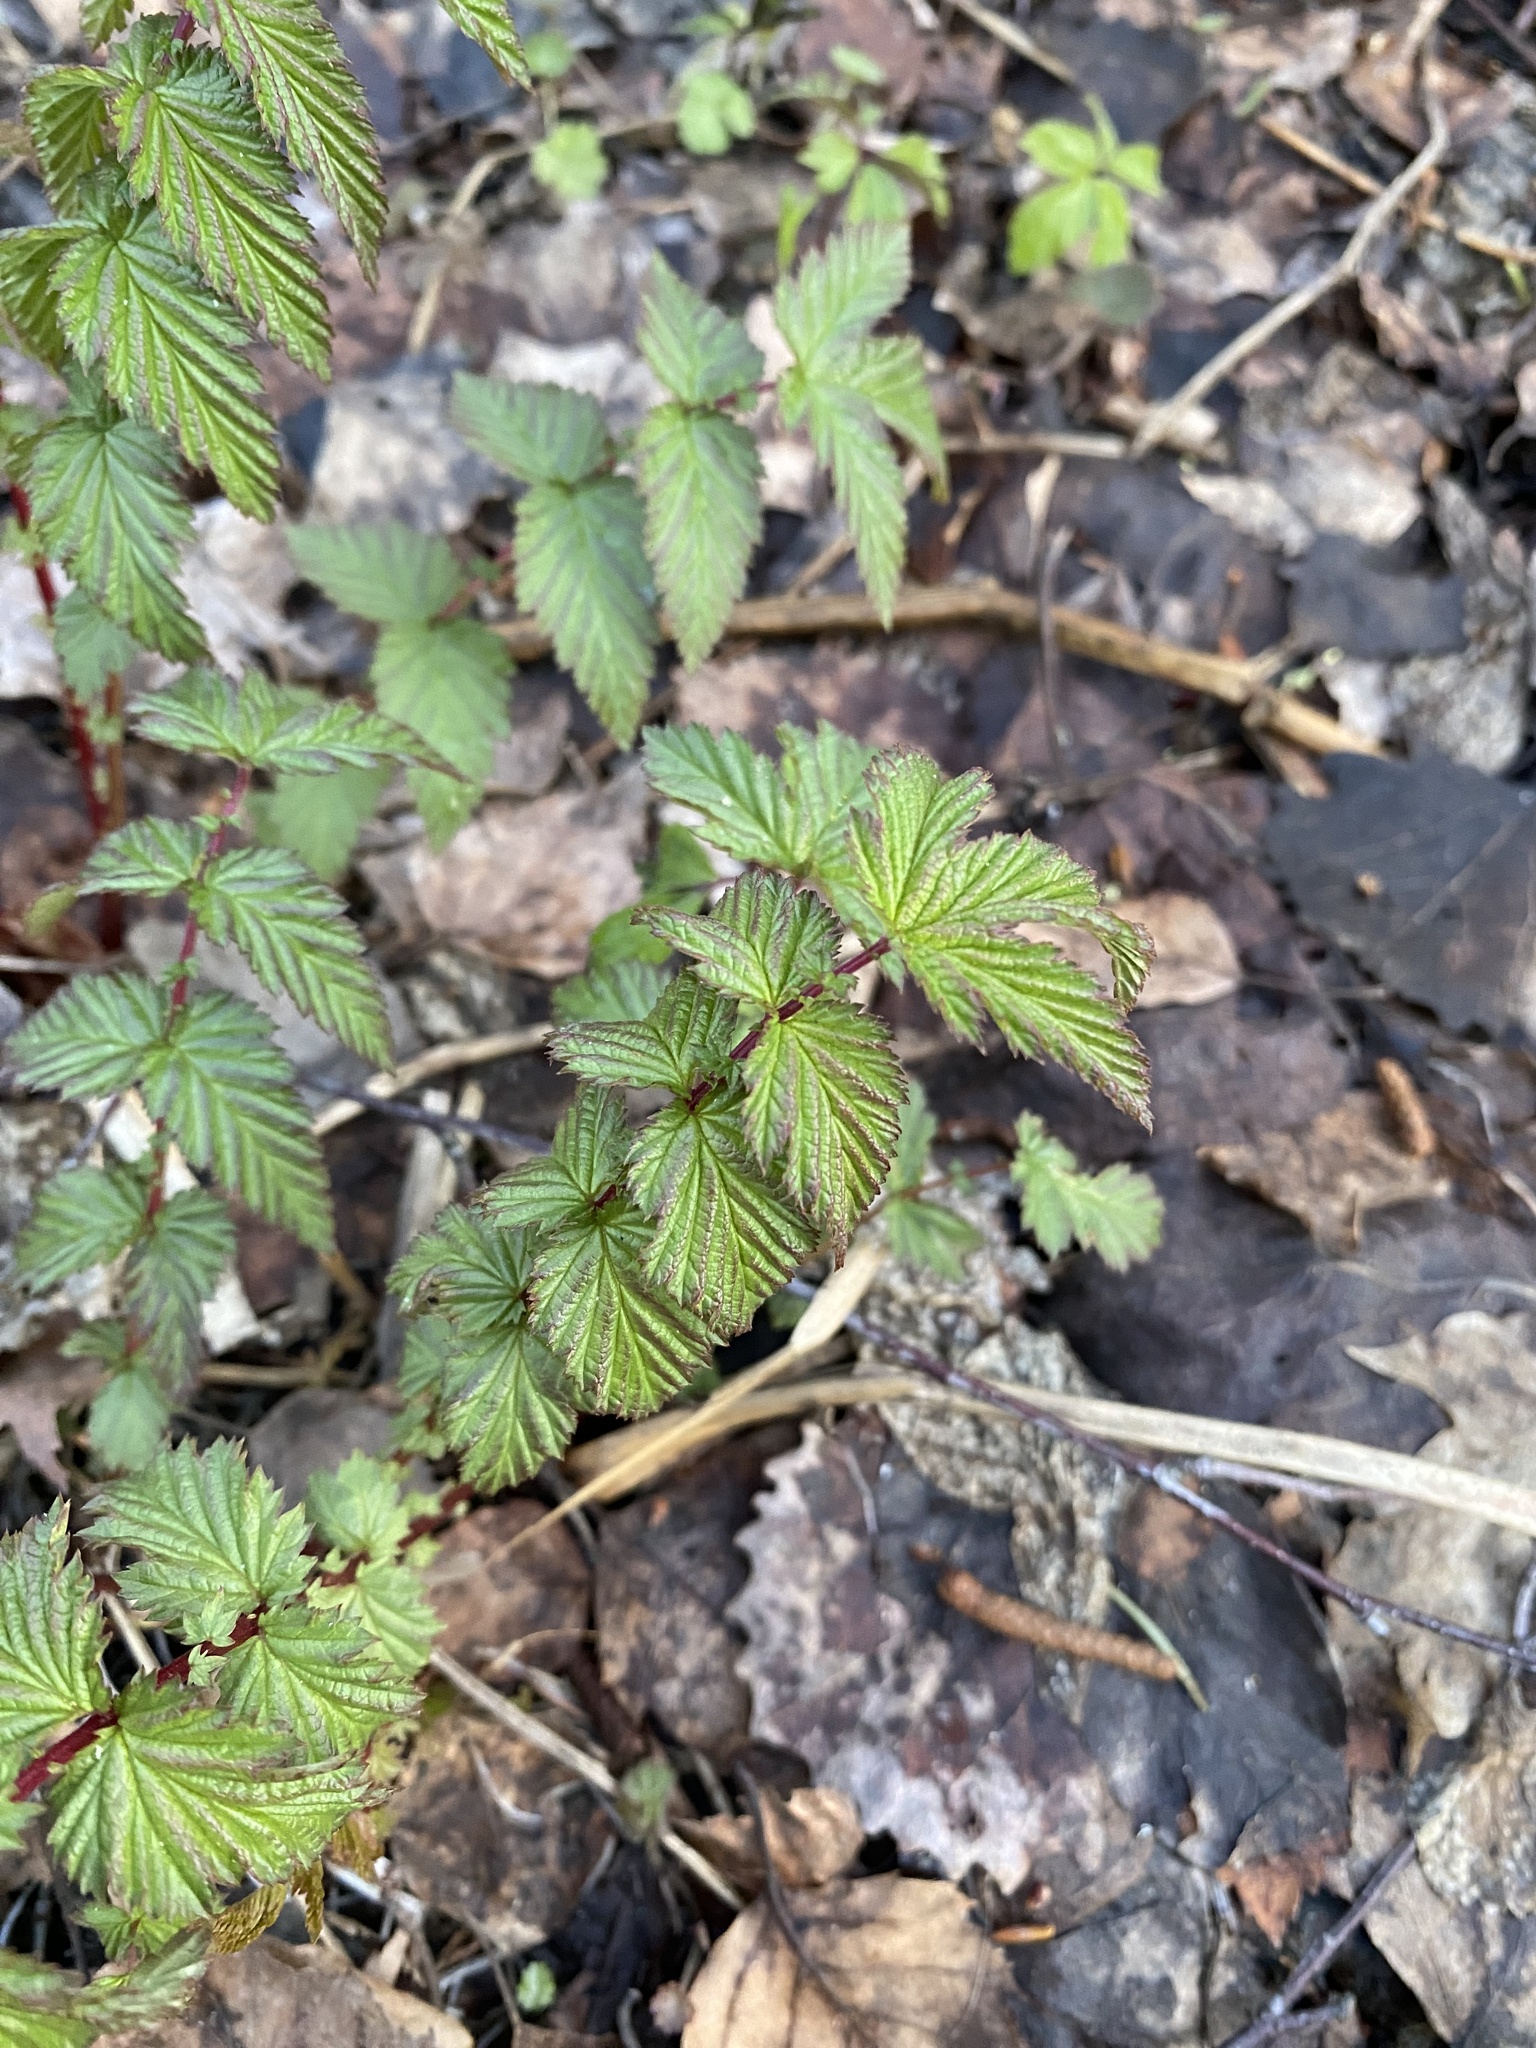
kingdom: Plantae
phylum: Tracheophyta
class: Magnoliopsida
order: Rosales
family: Rosaceae
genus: Filipendula
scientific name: Filipendula ulmaria
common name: Meadowsweet
